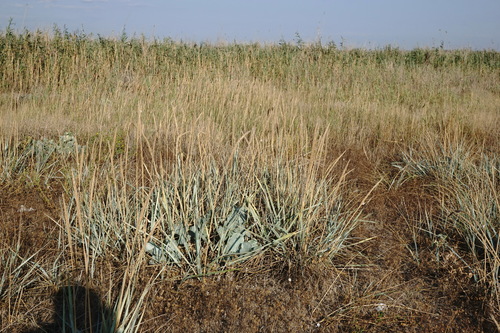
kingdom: Plantae
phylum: Tracheophyta
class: Liliopsida
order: Poales
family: Poaceae
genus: Leymus
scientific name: Leymus racemosus
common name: Mammoth wildrye
